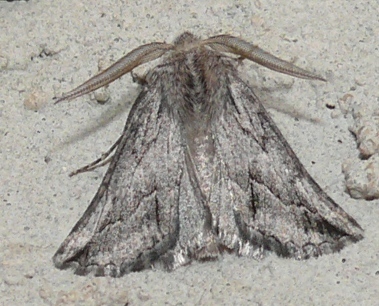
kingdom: Animalia
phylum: Arthropoda
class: Insecta
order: Lepidoptera
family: Geometridae
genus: Axiodes
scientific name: Axiodes
